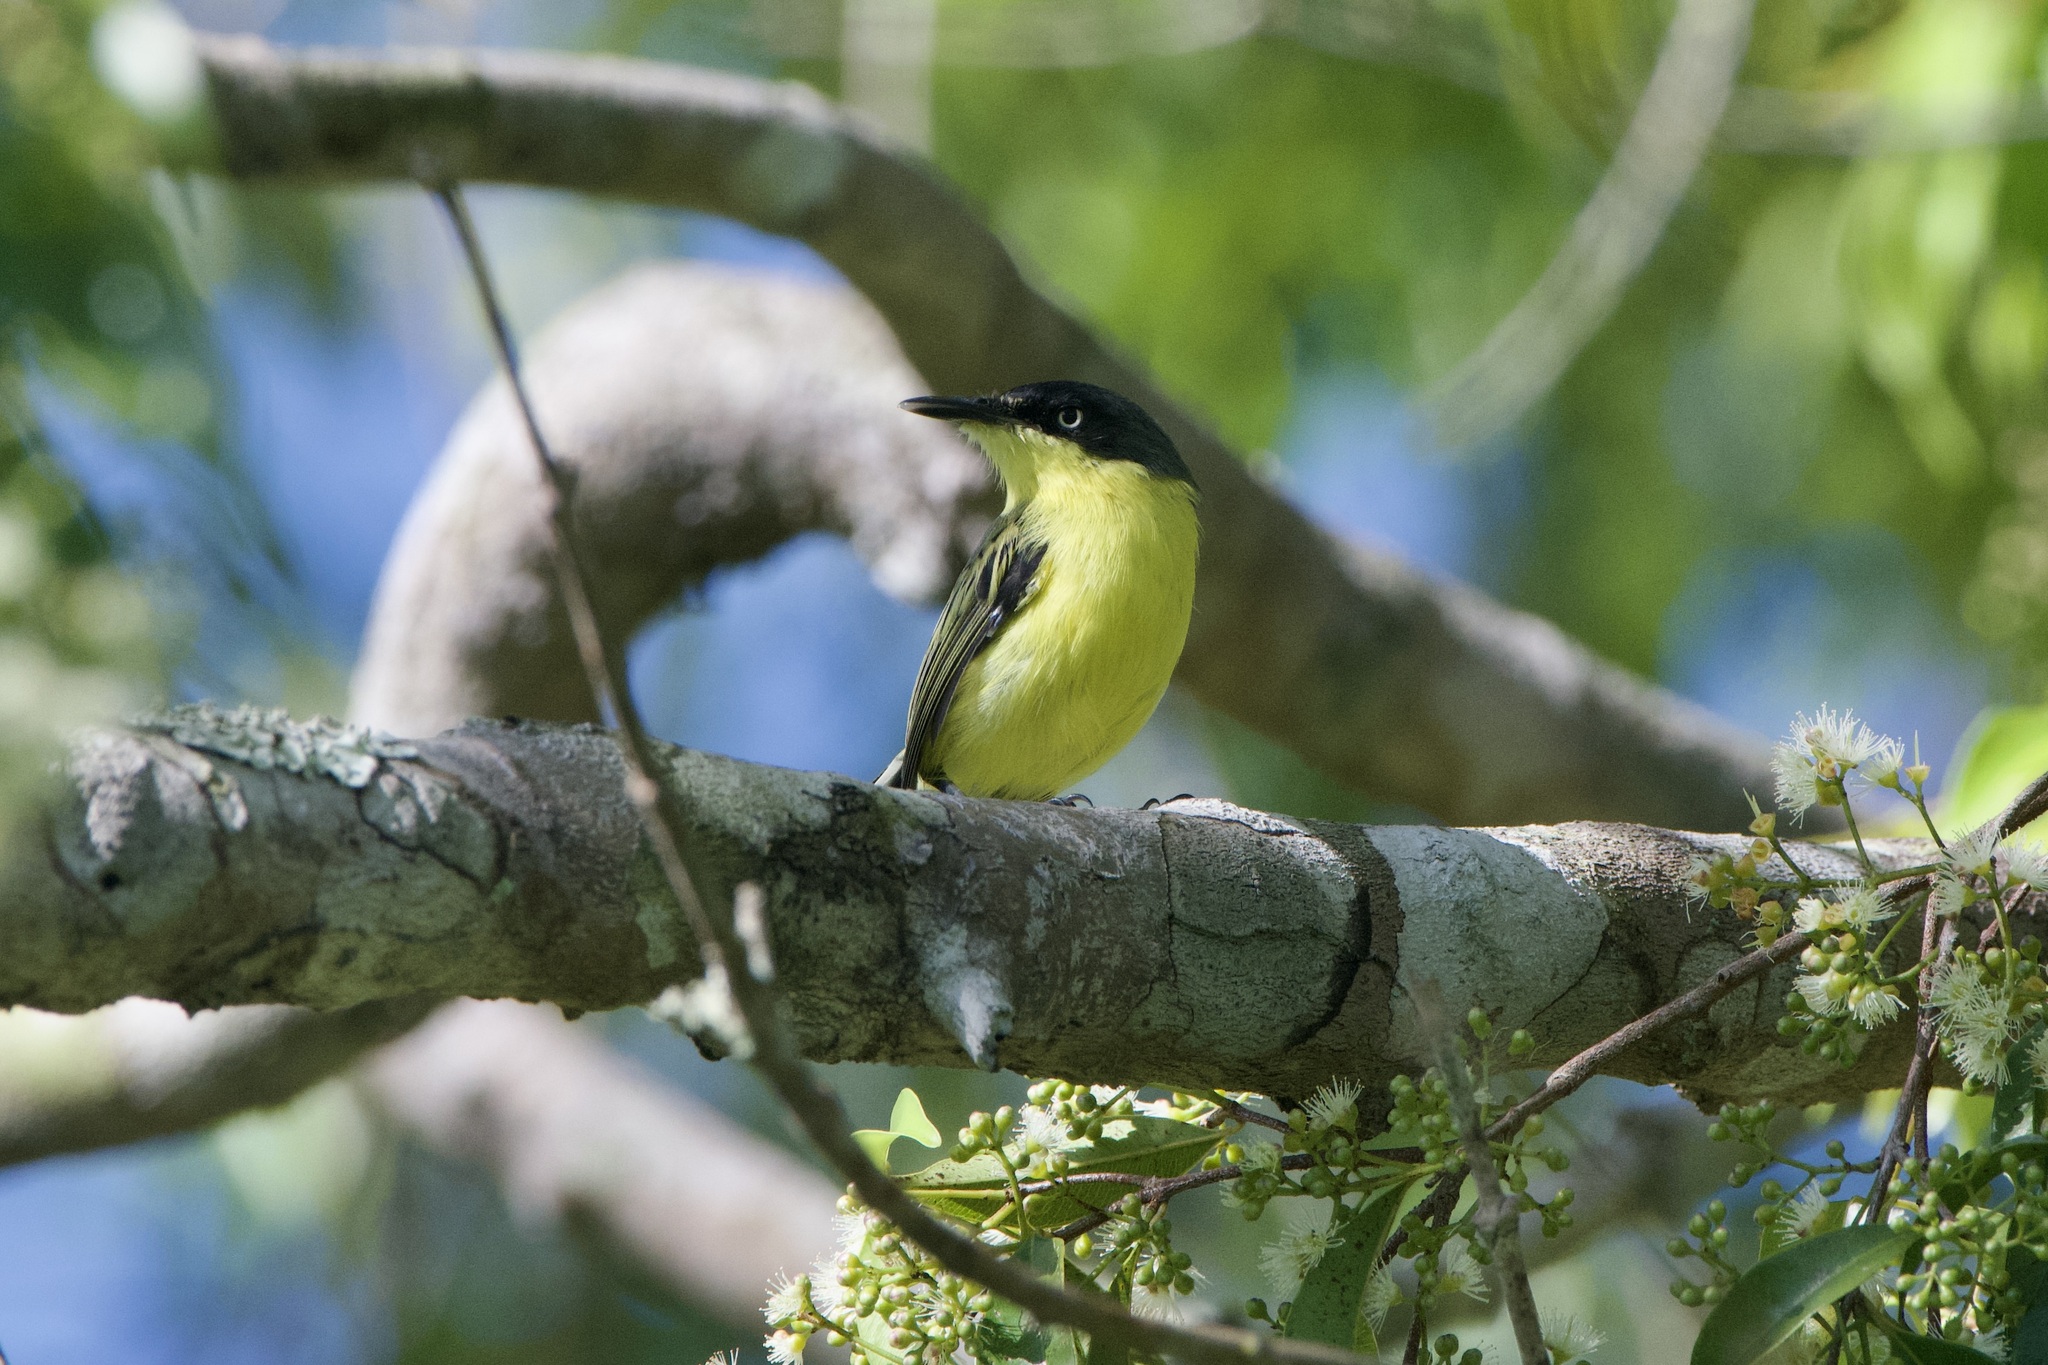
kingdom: Animalia
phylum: Chordata
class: Aves
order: Passeriformes
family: Tyrannidae
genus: Todirostrum
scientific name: Todirostrum cinereum
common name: Common tody-flycatcher
